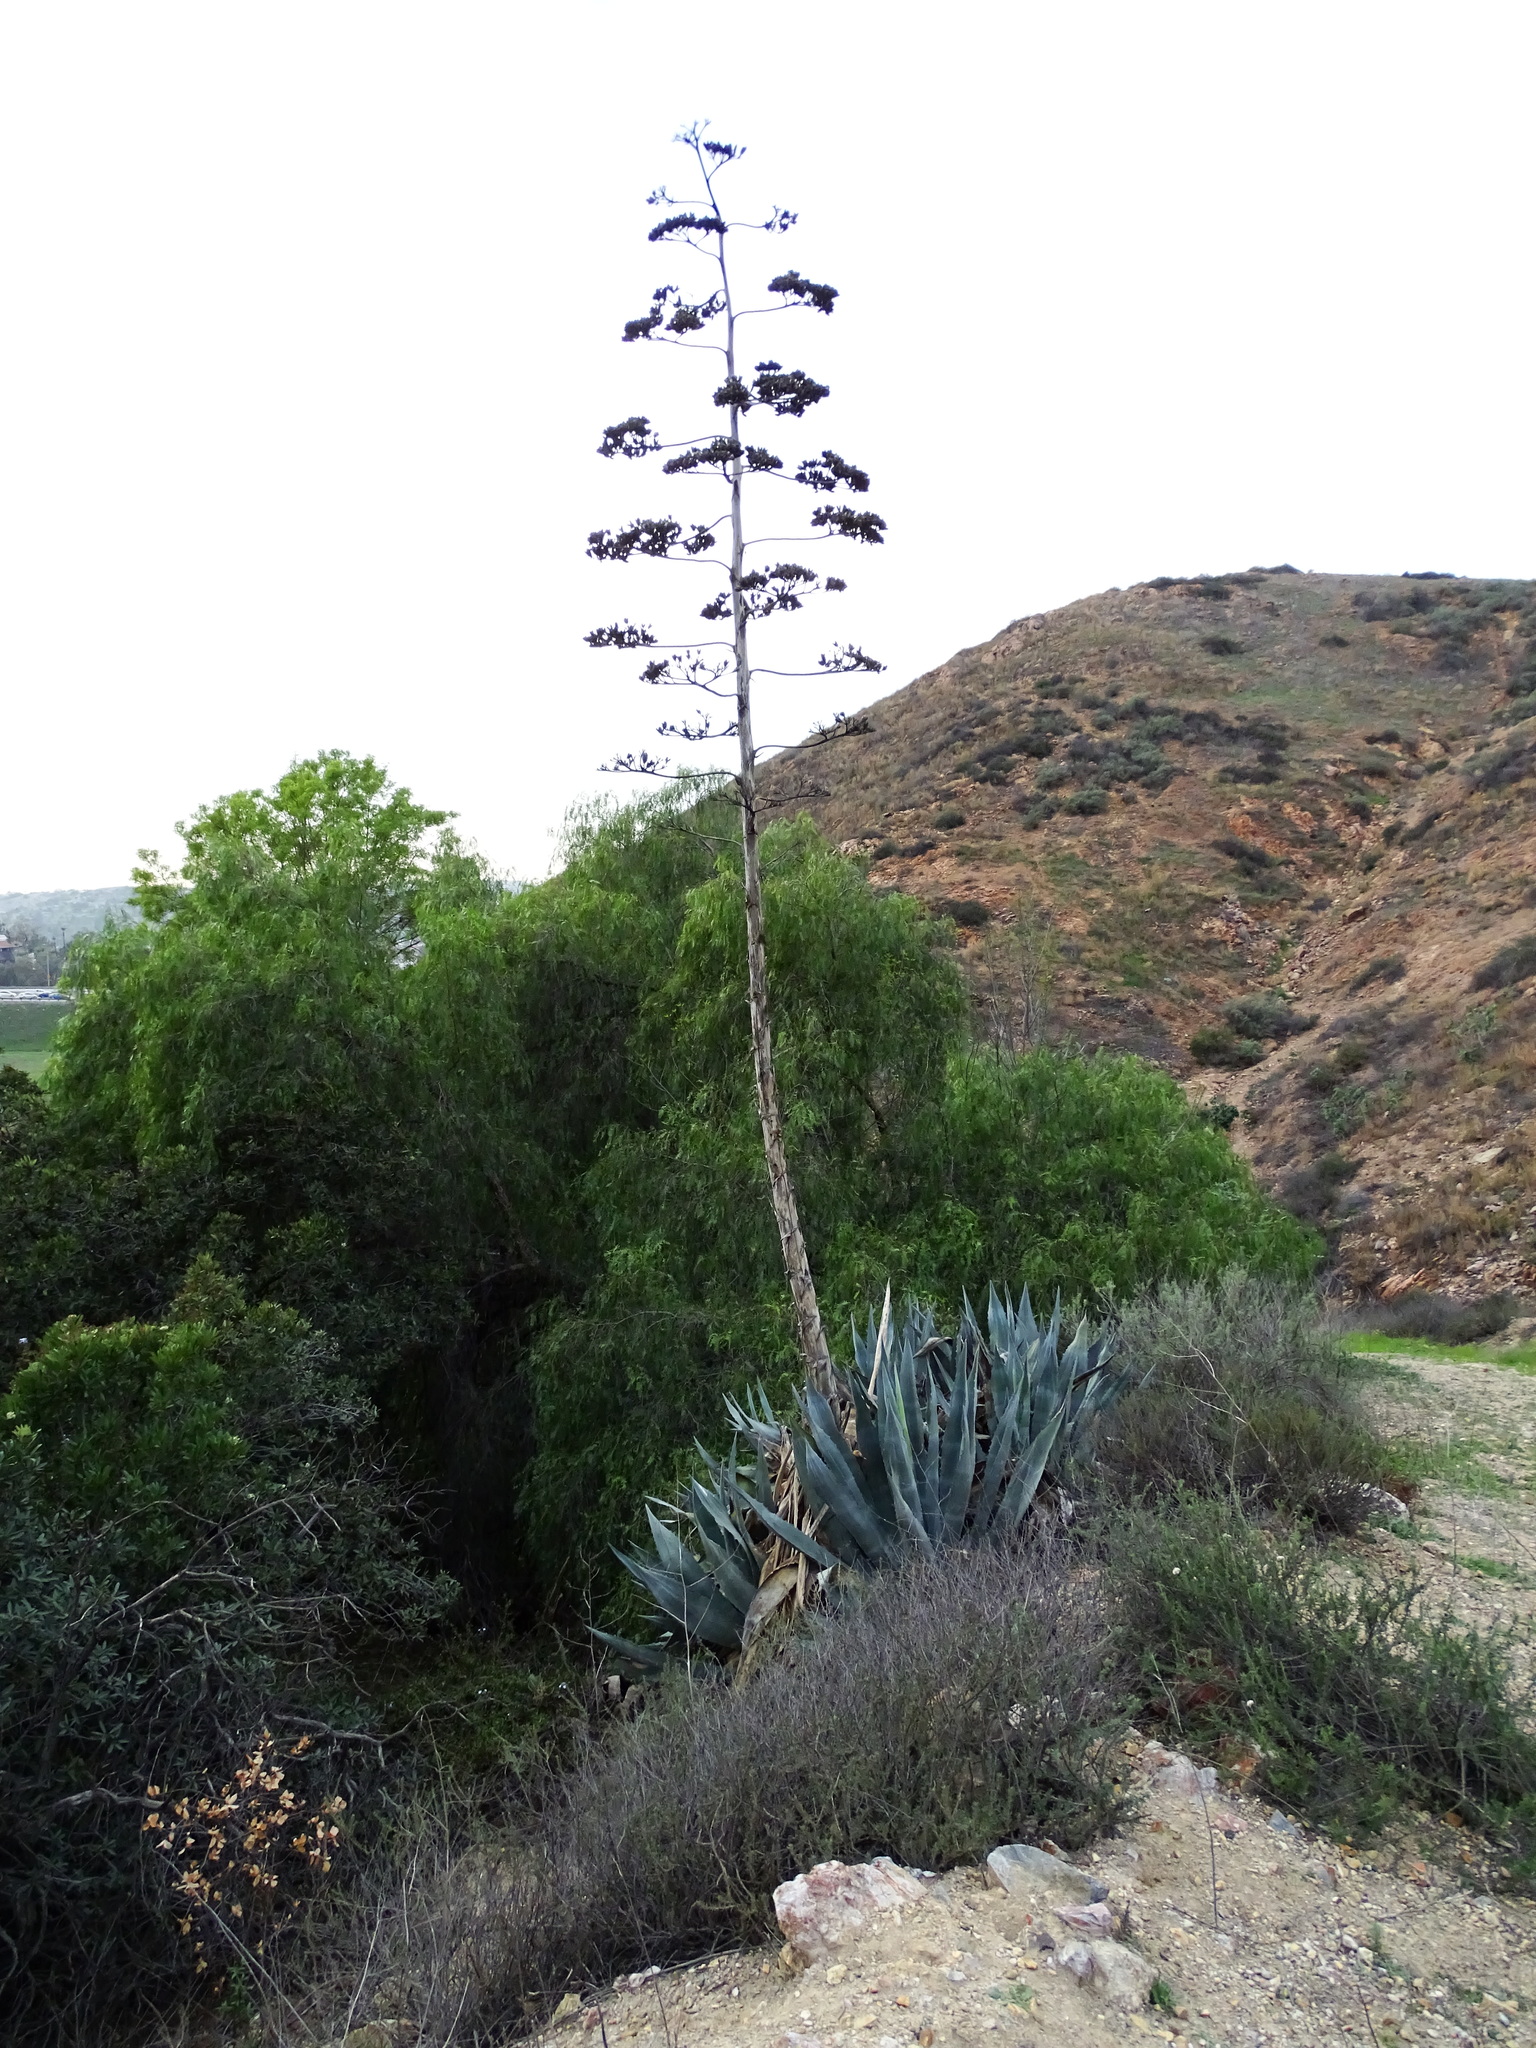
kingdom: Plantae
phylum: Tracheophyta
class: Liliopsida
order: Asparagales
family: Asparagaceae
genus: Agave
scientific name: Agave americana
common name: Centuryplant
